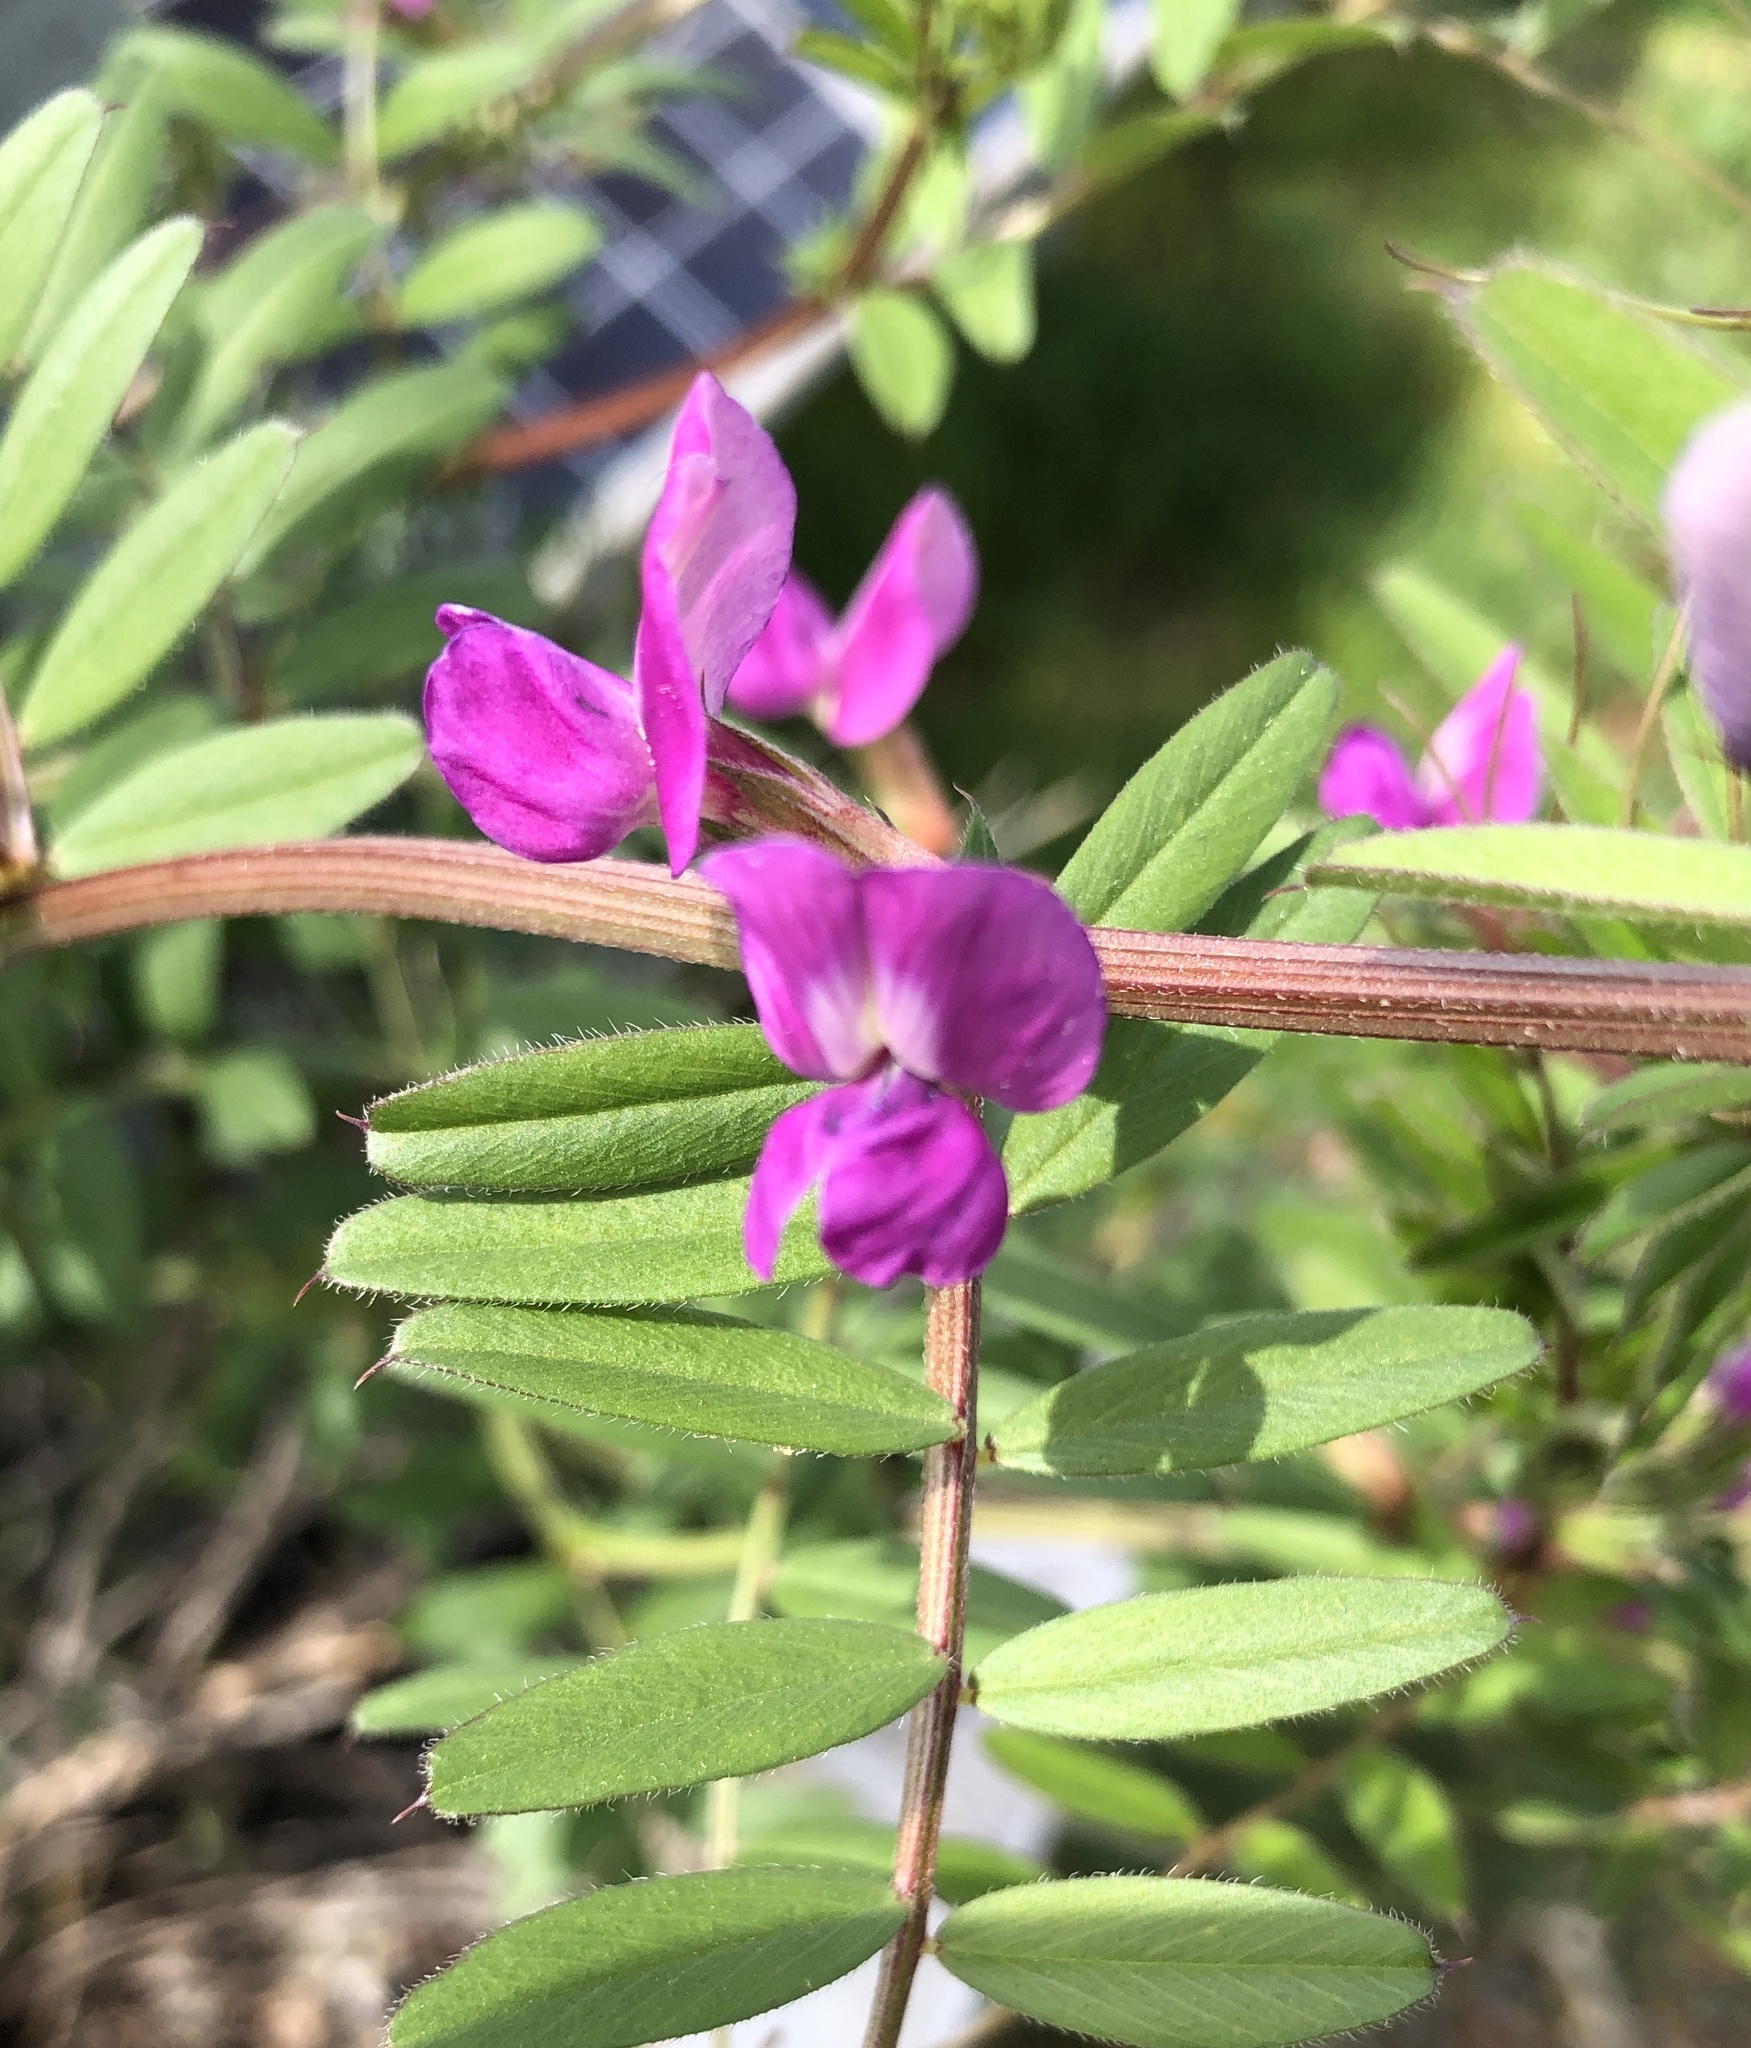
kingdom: Plantae
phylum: Tracheophyta
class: Magnoliopsida
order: Fabales
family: Fabaceae
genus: Vicia
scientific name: Vicia sativa
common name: Garden vetch
